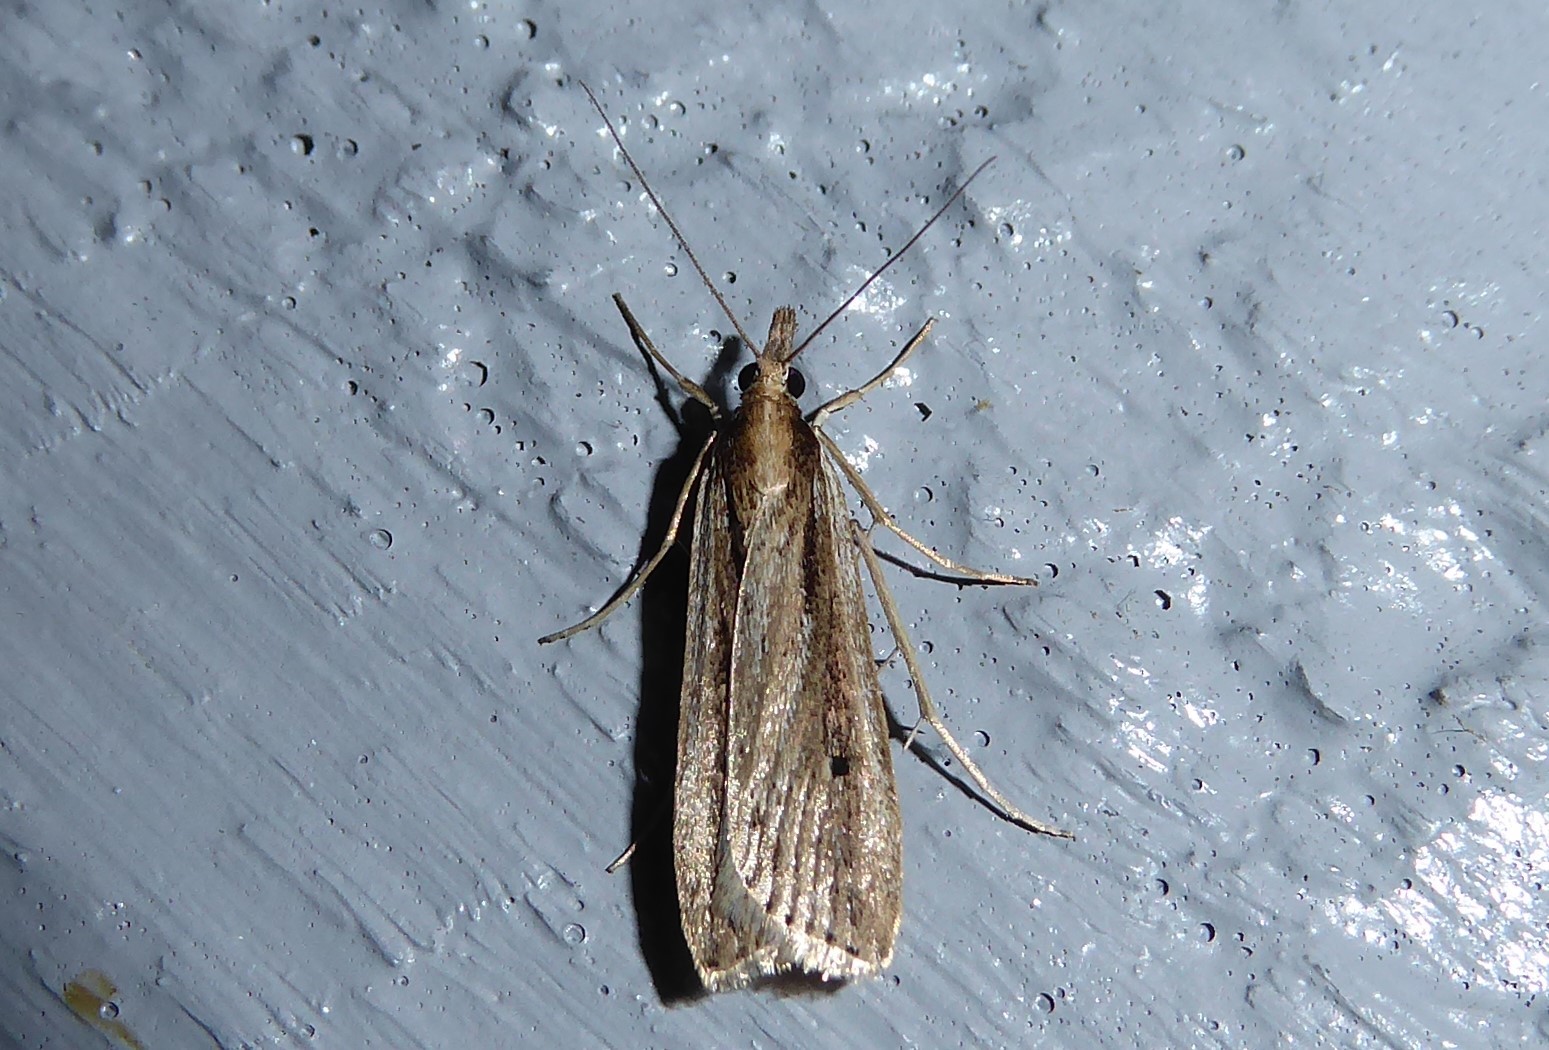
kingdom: Animalia
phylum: Arthropoda
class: Insecta
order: Lepidoptera
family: Crambidae
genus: Eudonia
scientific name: Eudonia sabulosella
